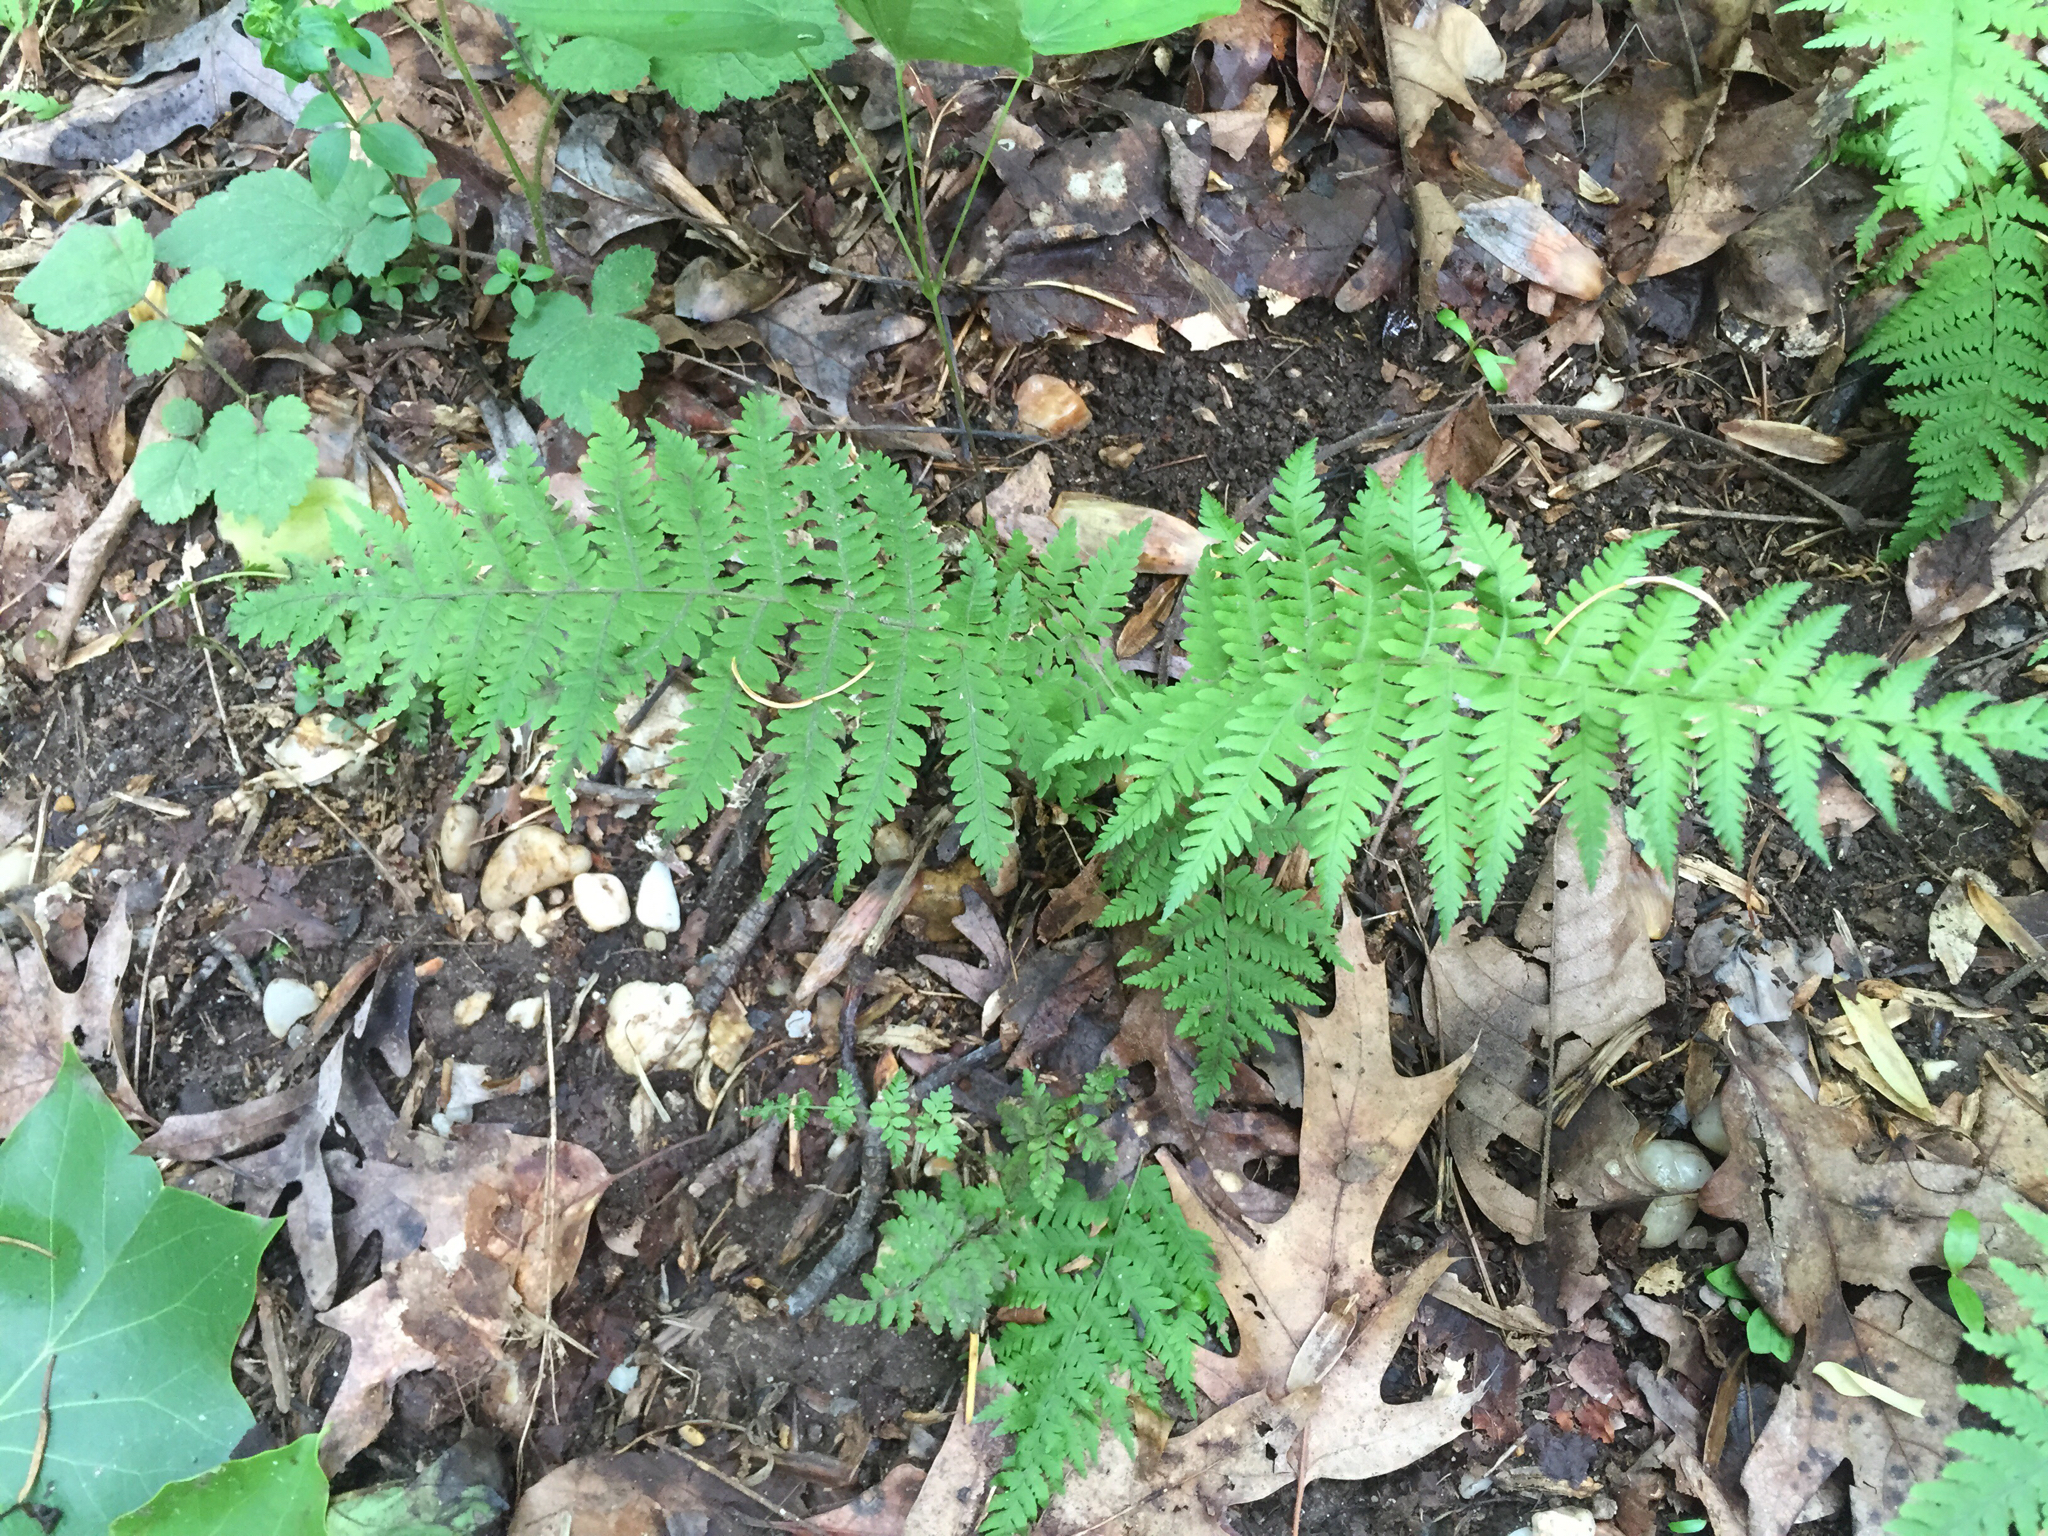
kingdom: Plantae
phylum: Tracheophyta
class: Polypodiopsida
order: Polypodiales
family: Thelypteridaceae
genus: Amauropelta
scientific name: Amauropelta noveboracensis
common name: New york fern
